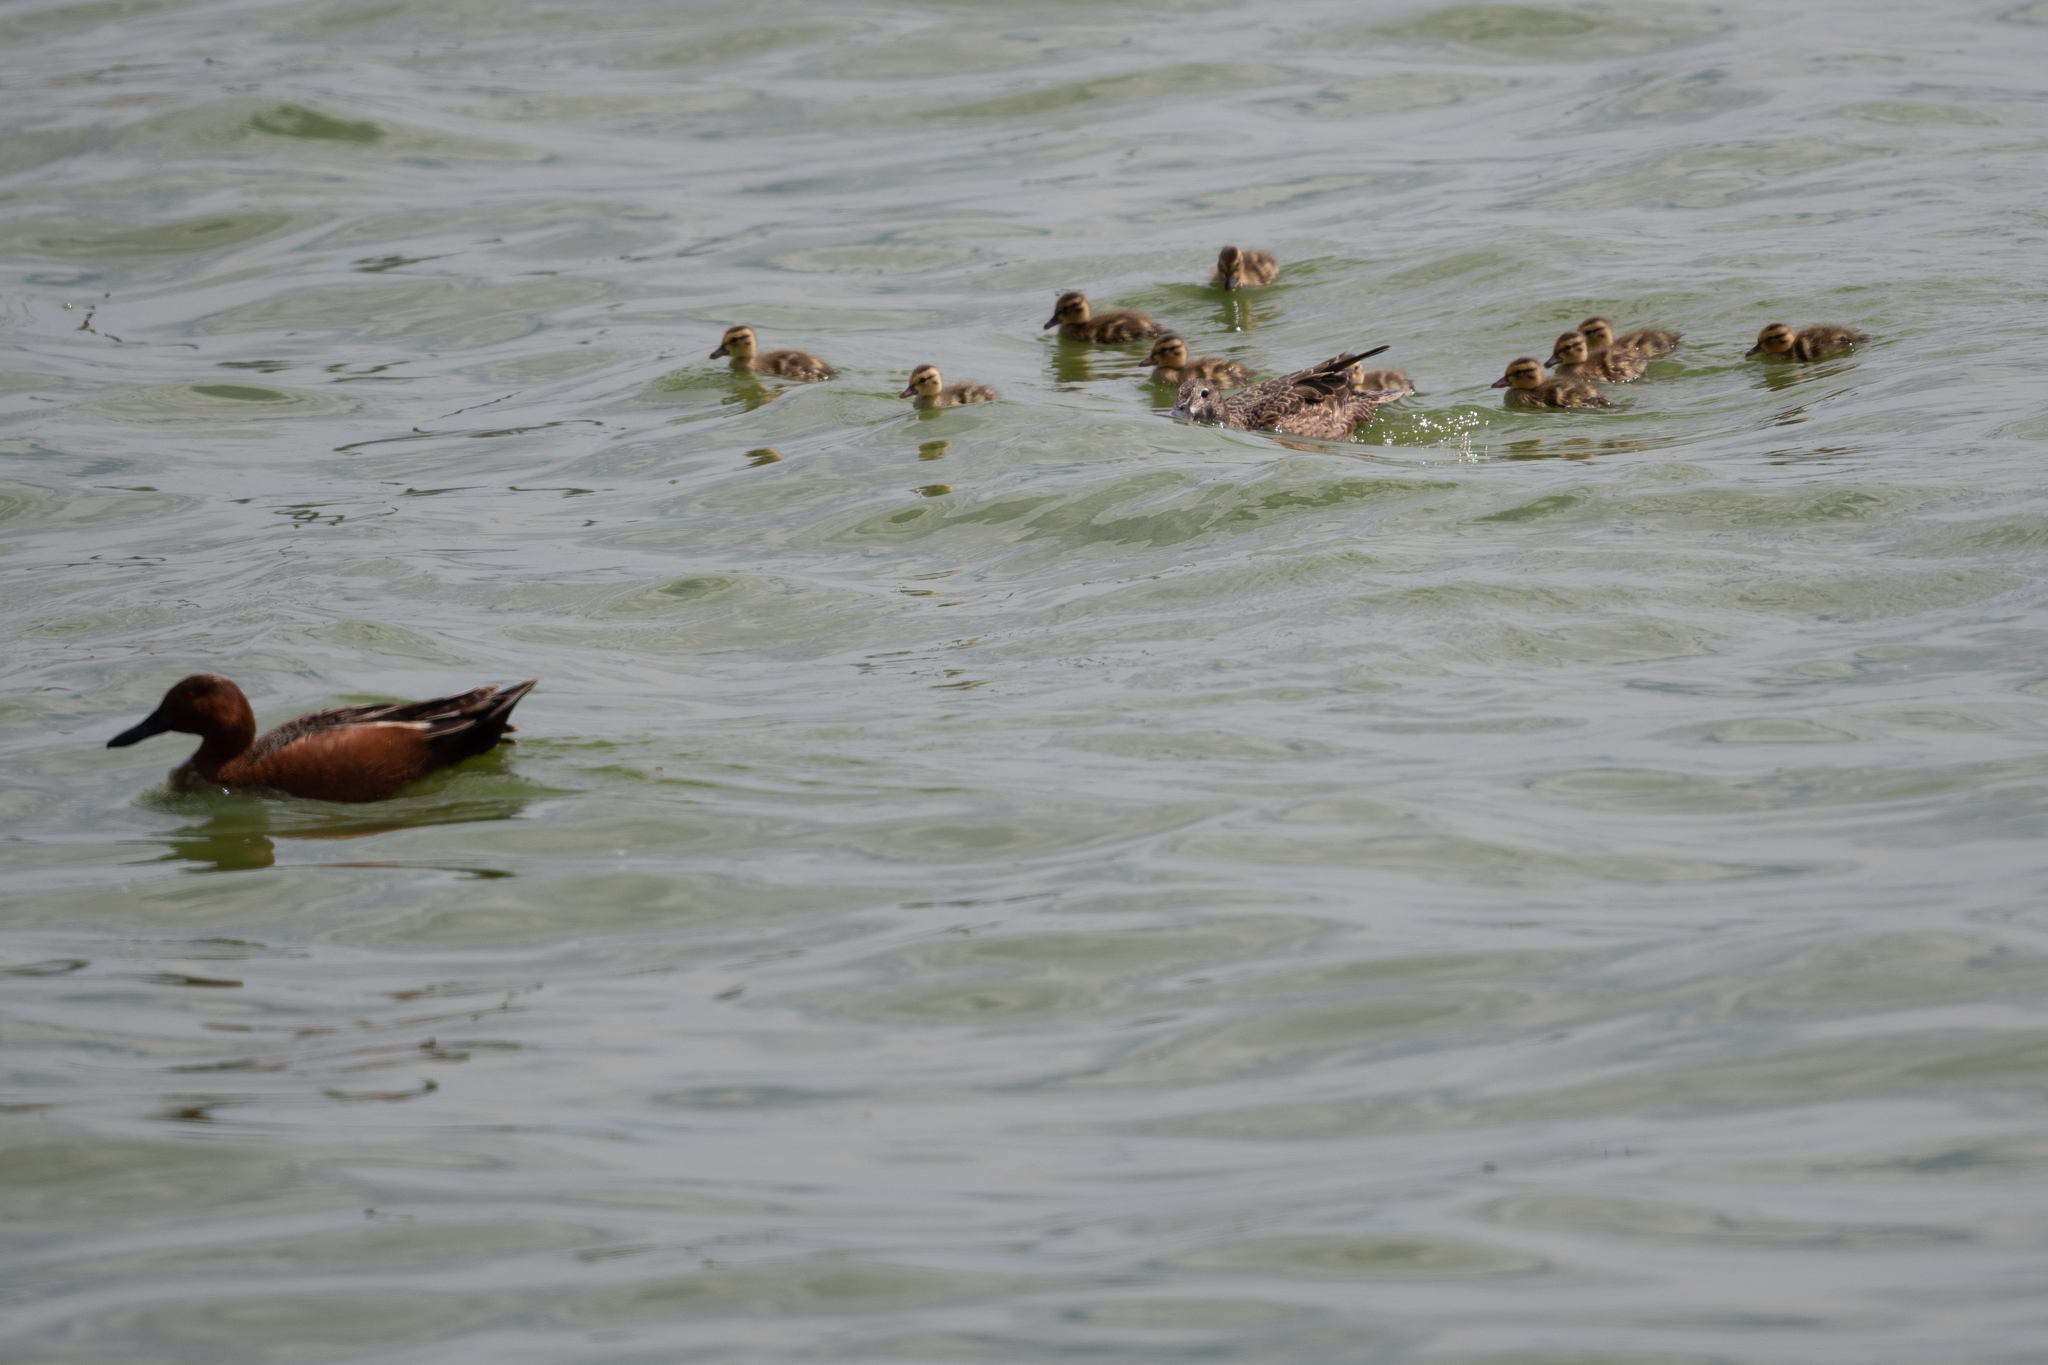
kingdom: Animalia
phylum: Chordata
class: Aves
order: Anseriformes
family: Anatidae
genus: Spatula
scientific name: Spatula cyanoptera
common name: Cinnamon teal
